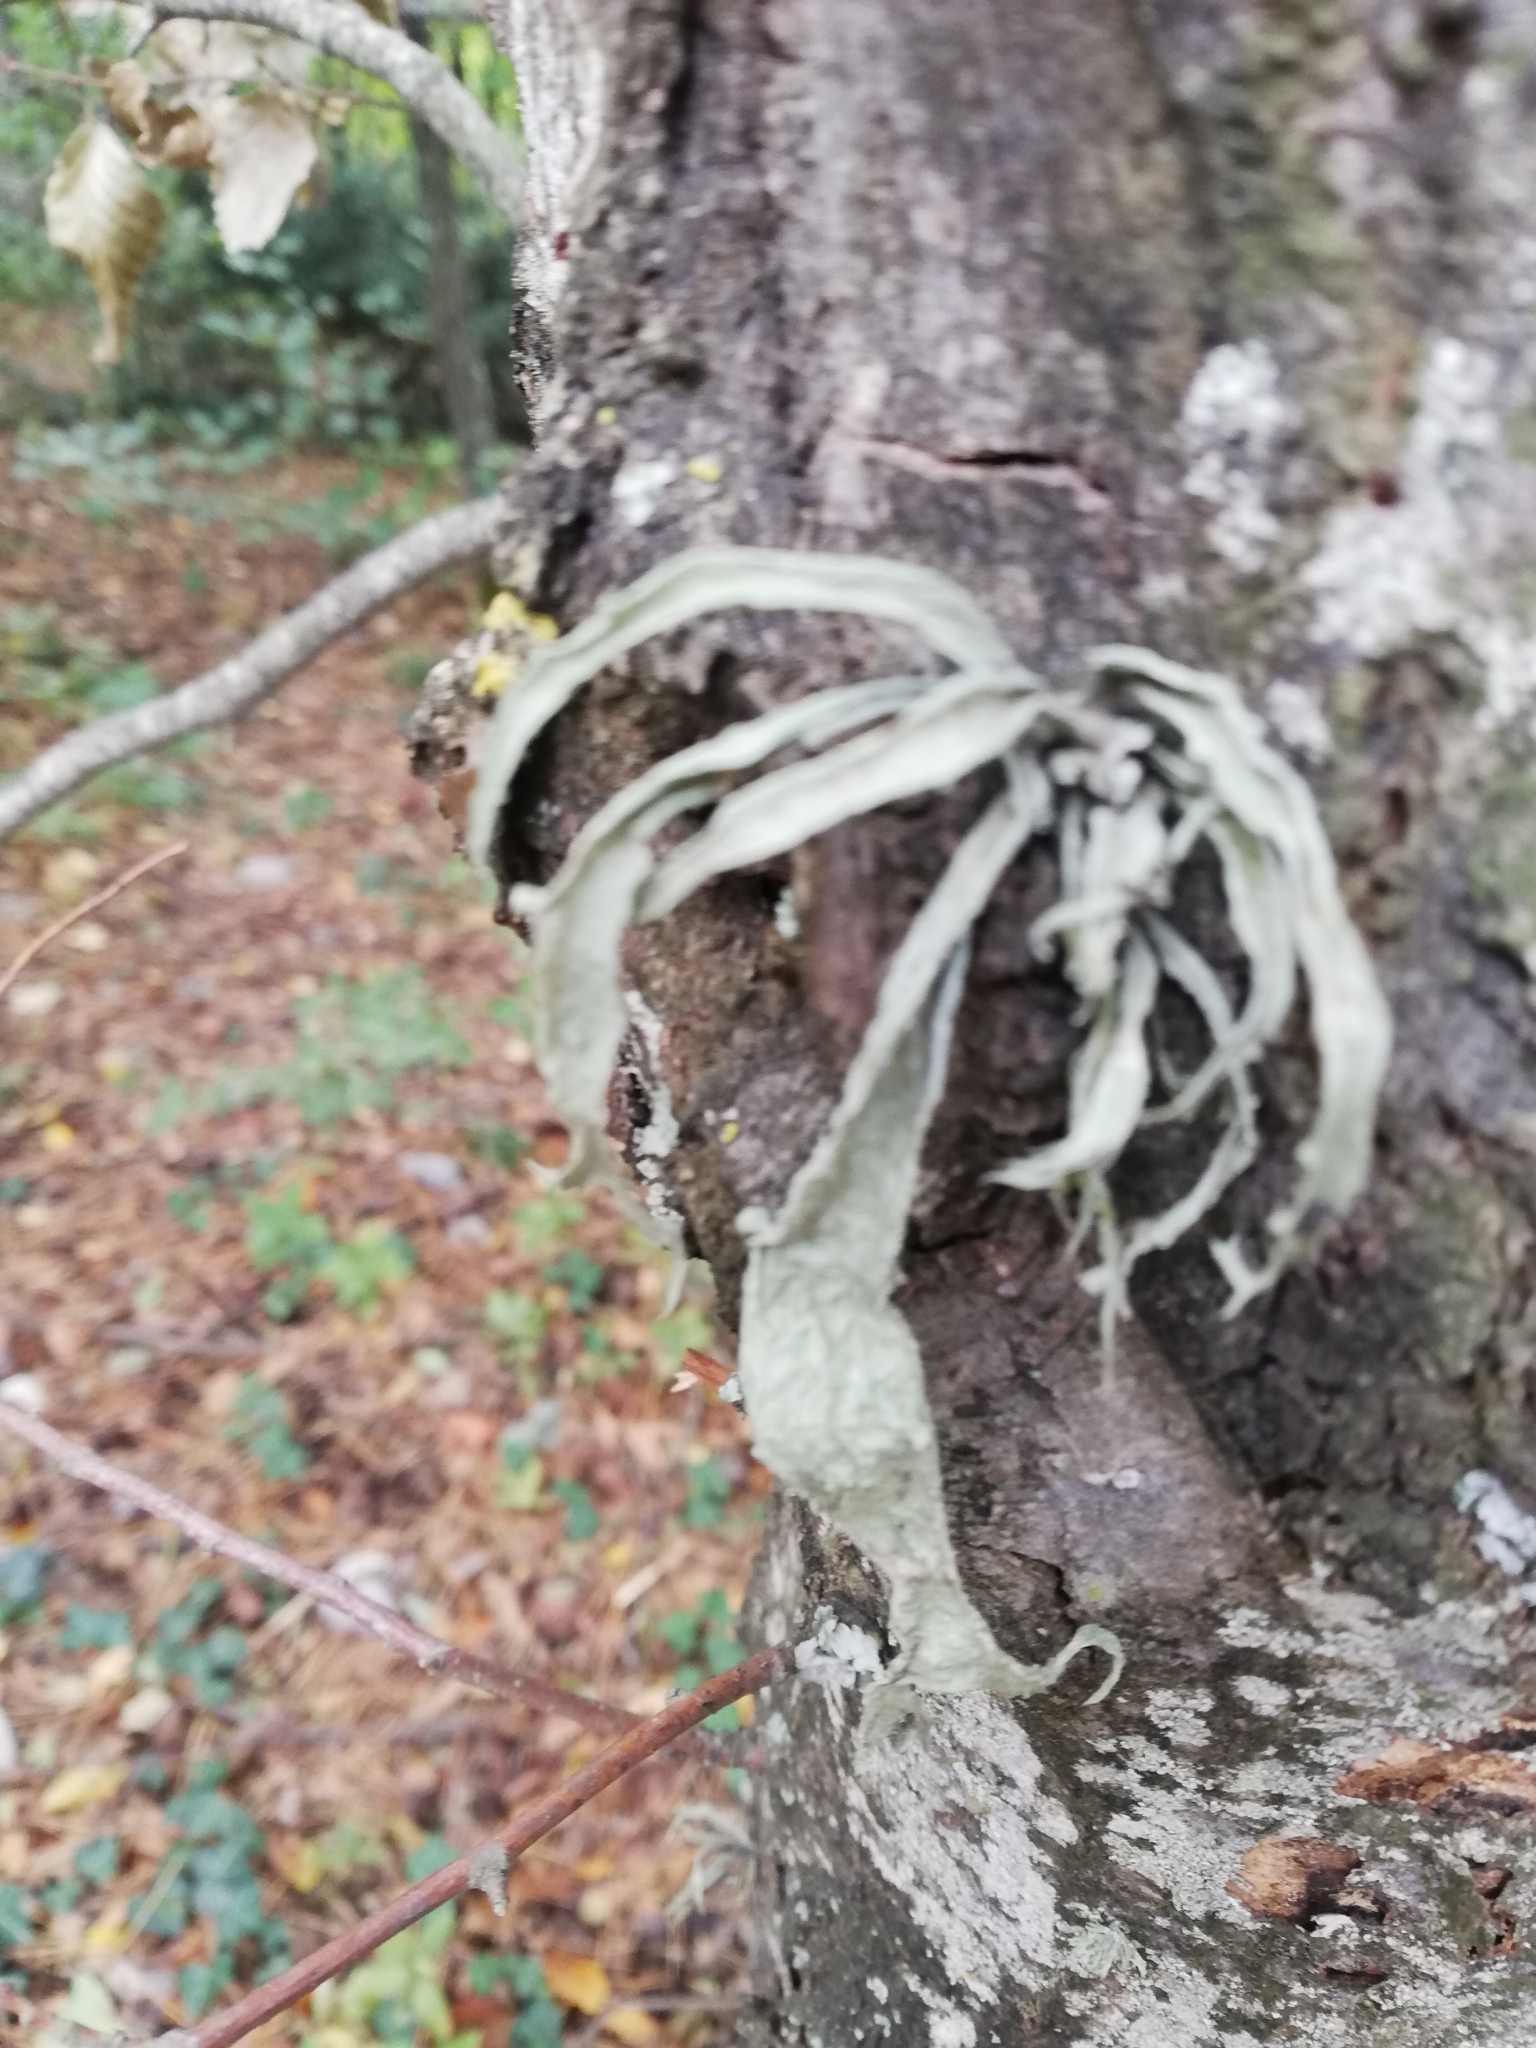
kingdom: Fungi
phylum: Ascomycota
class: Lecanoromycetes
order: Lecanorales
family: Ramalinaceae
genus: Ramalina
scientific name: Ramalina fraxinea
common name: Cartilage lichen
